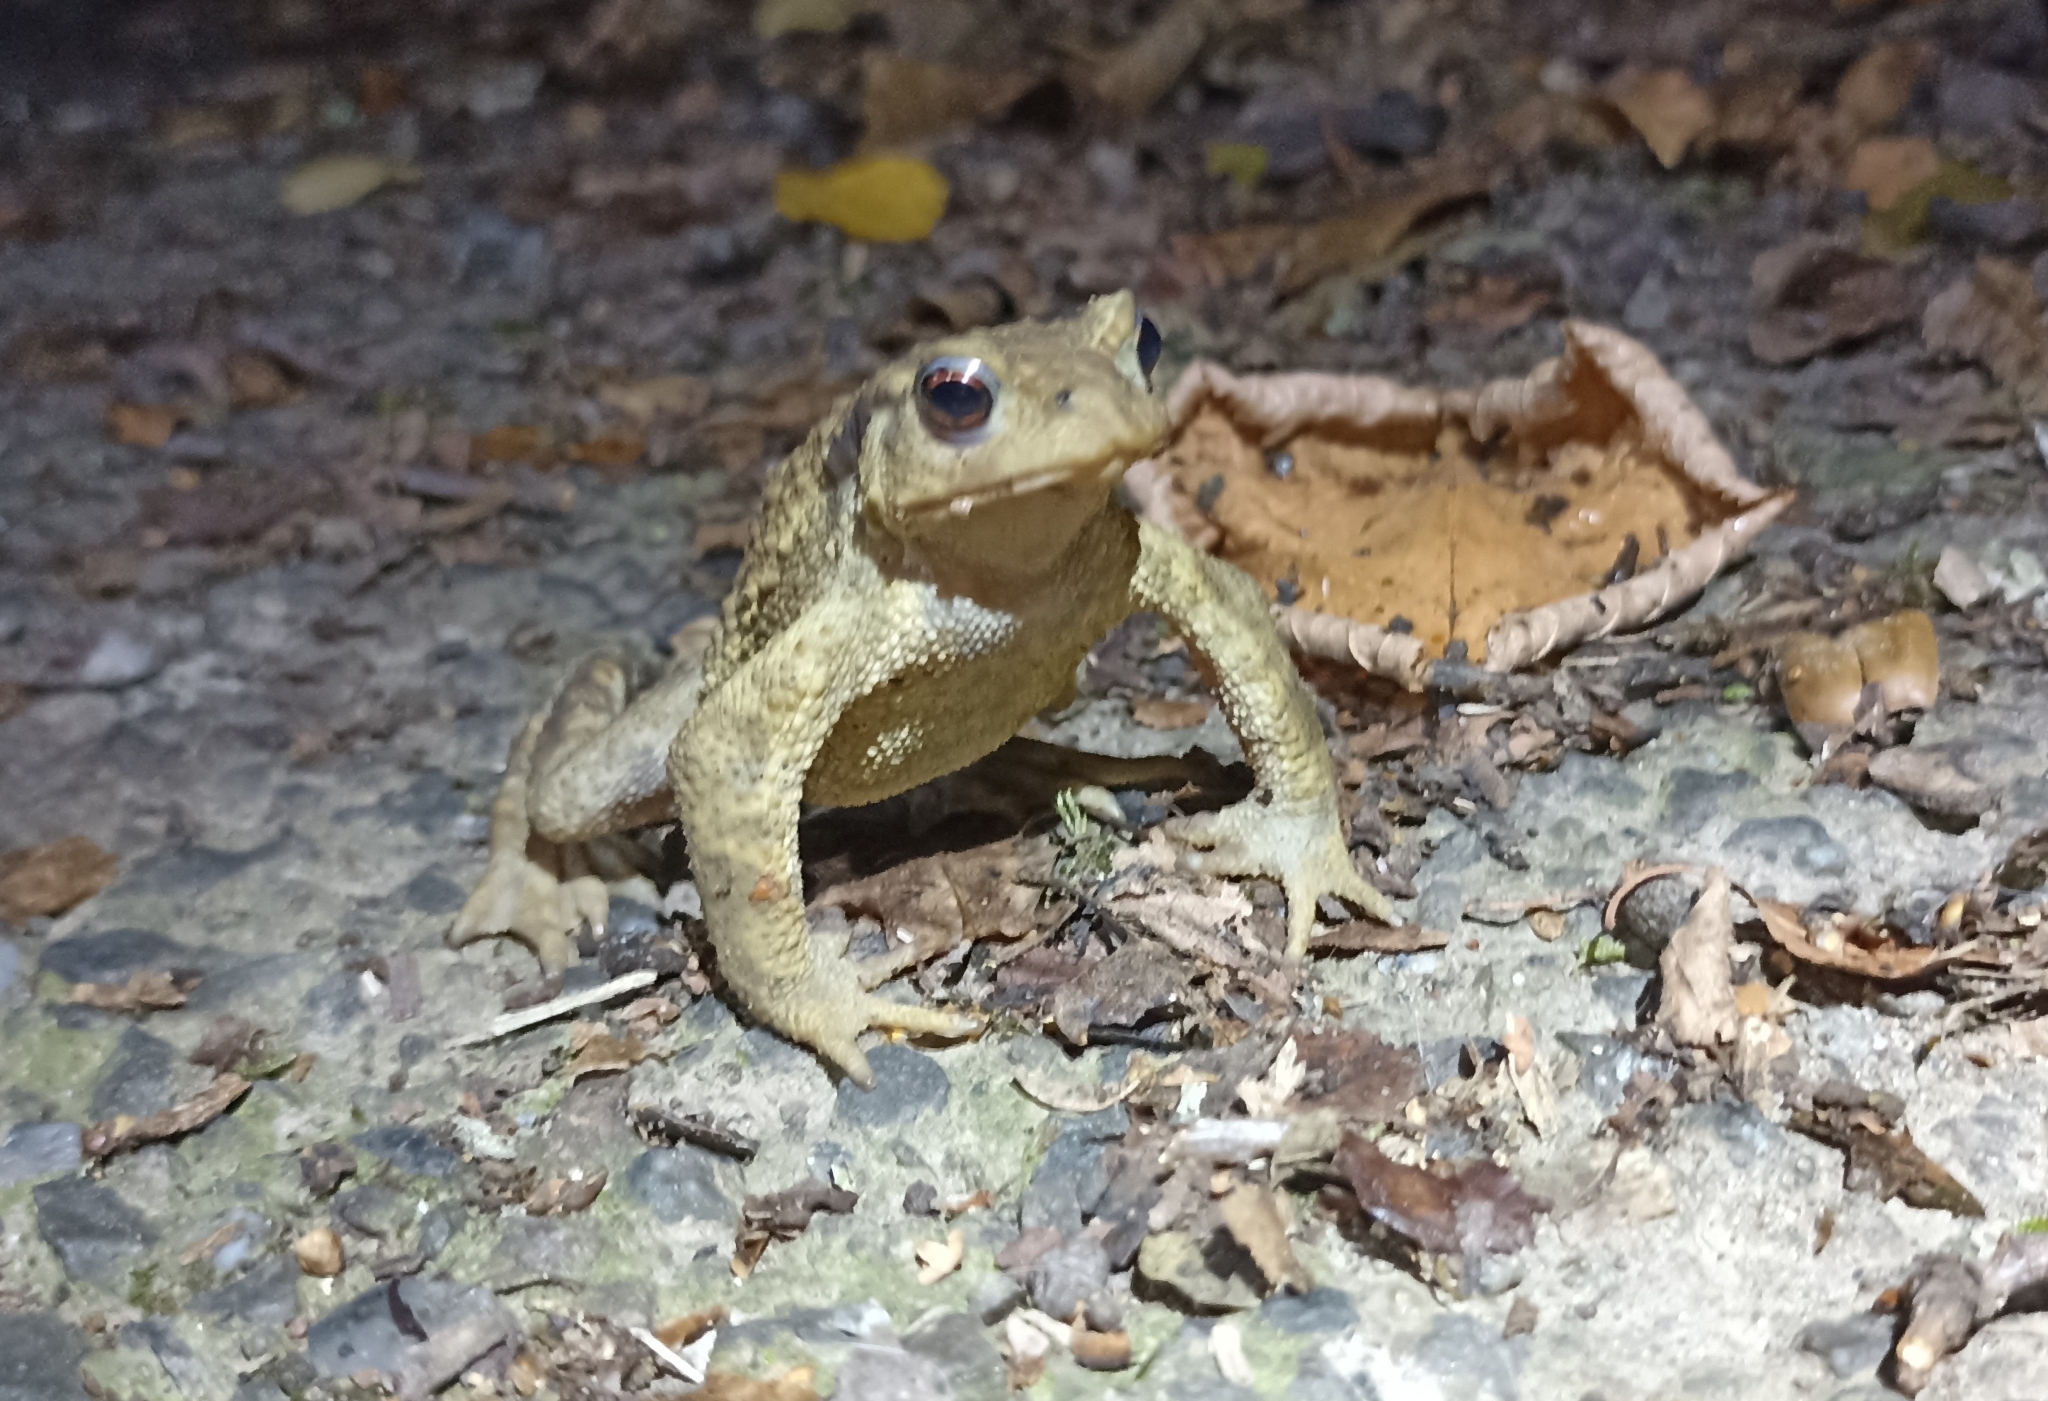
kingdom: Animalia
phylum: Chordata
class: Amphibia
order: Anura
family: Bufonidae
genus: Bufo
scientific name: Bufo spinosus
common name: Western common toad
